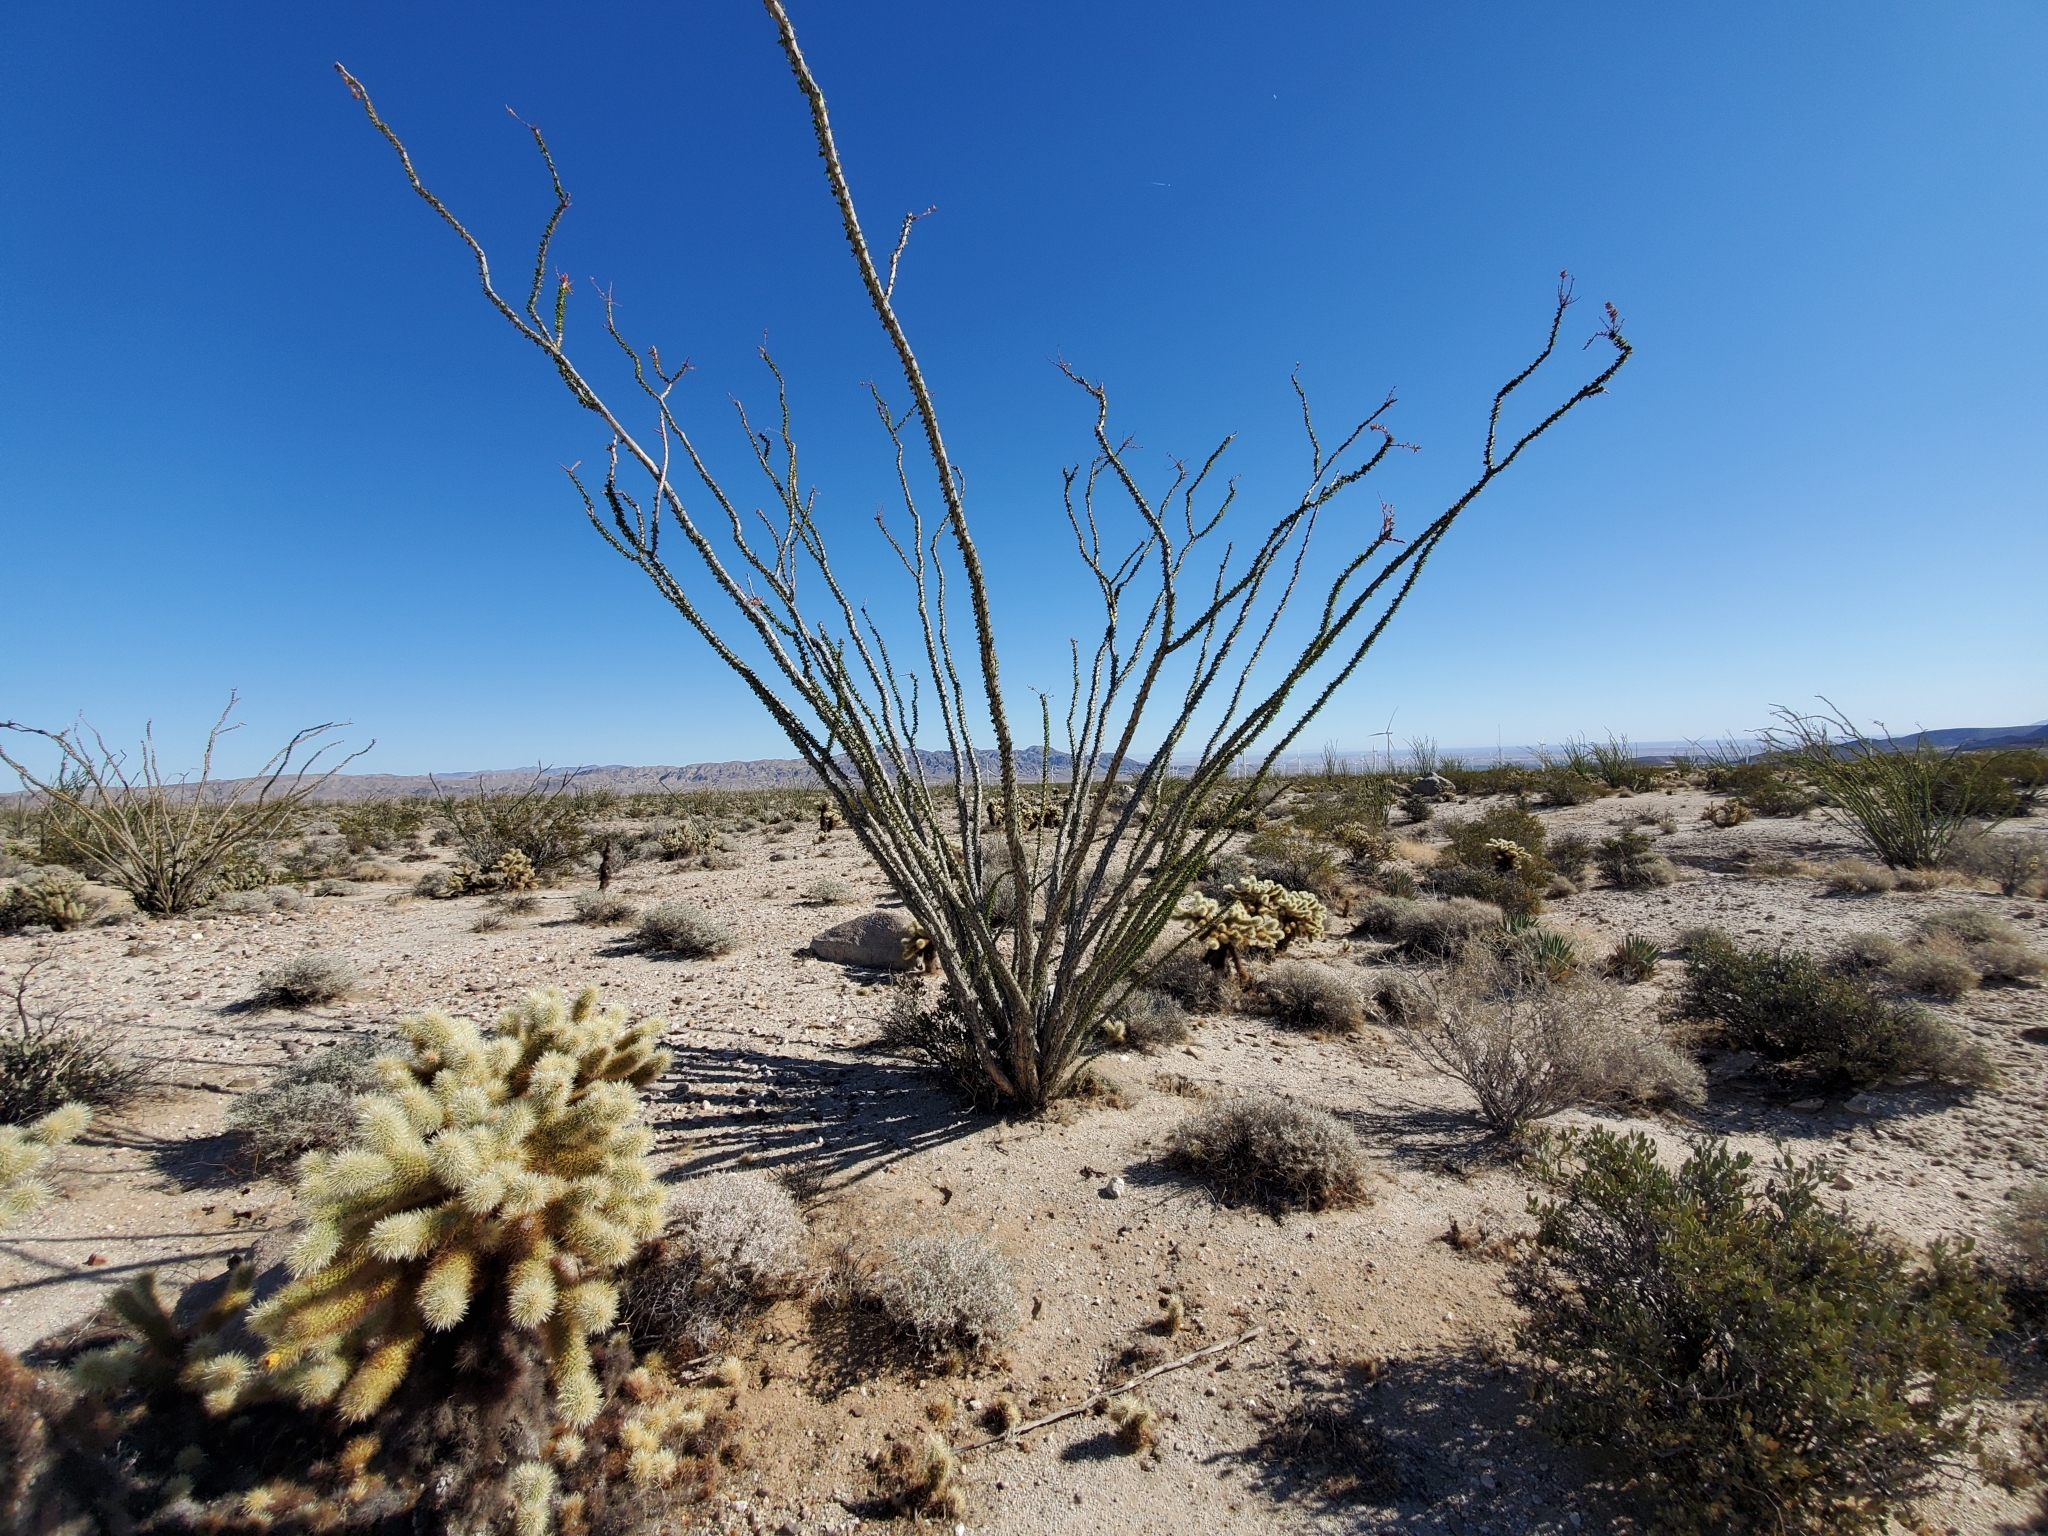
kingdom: Plantae
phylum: Tracheophyta
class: Magnoliopsida
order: Ericales
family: Fouquieriaceae
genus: Fouquieria
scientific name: Fouquieria splendens
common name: Vine-cactus
